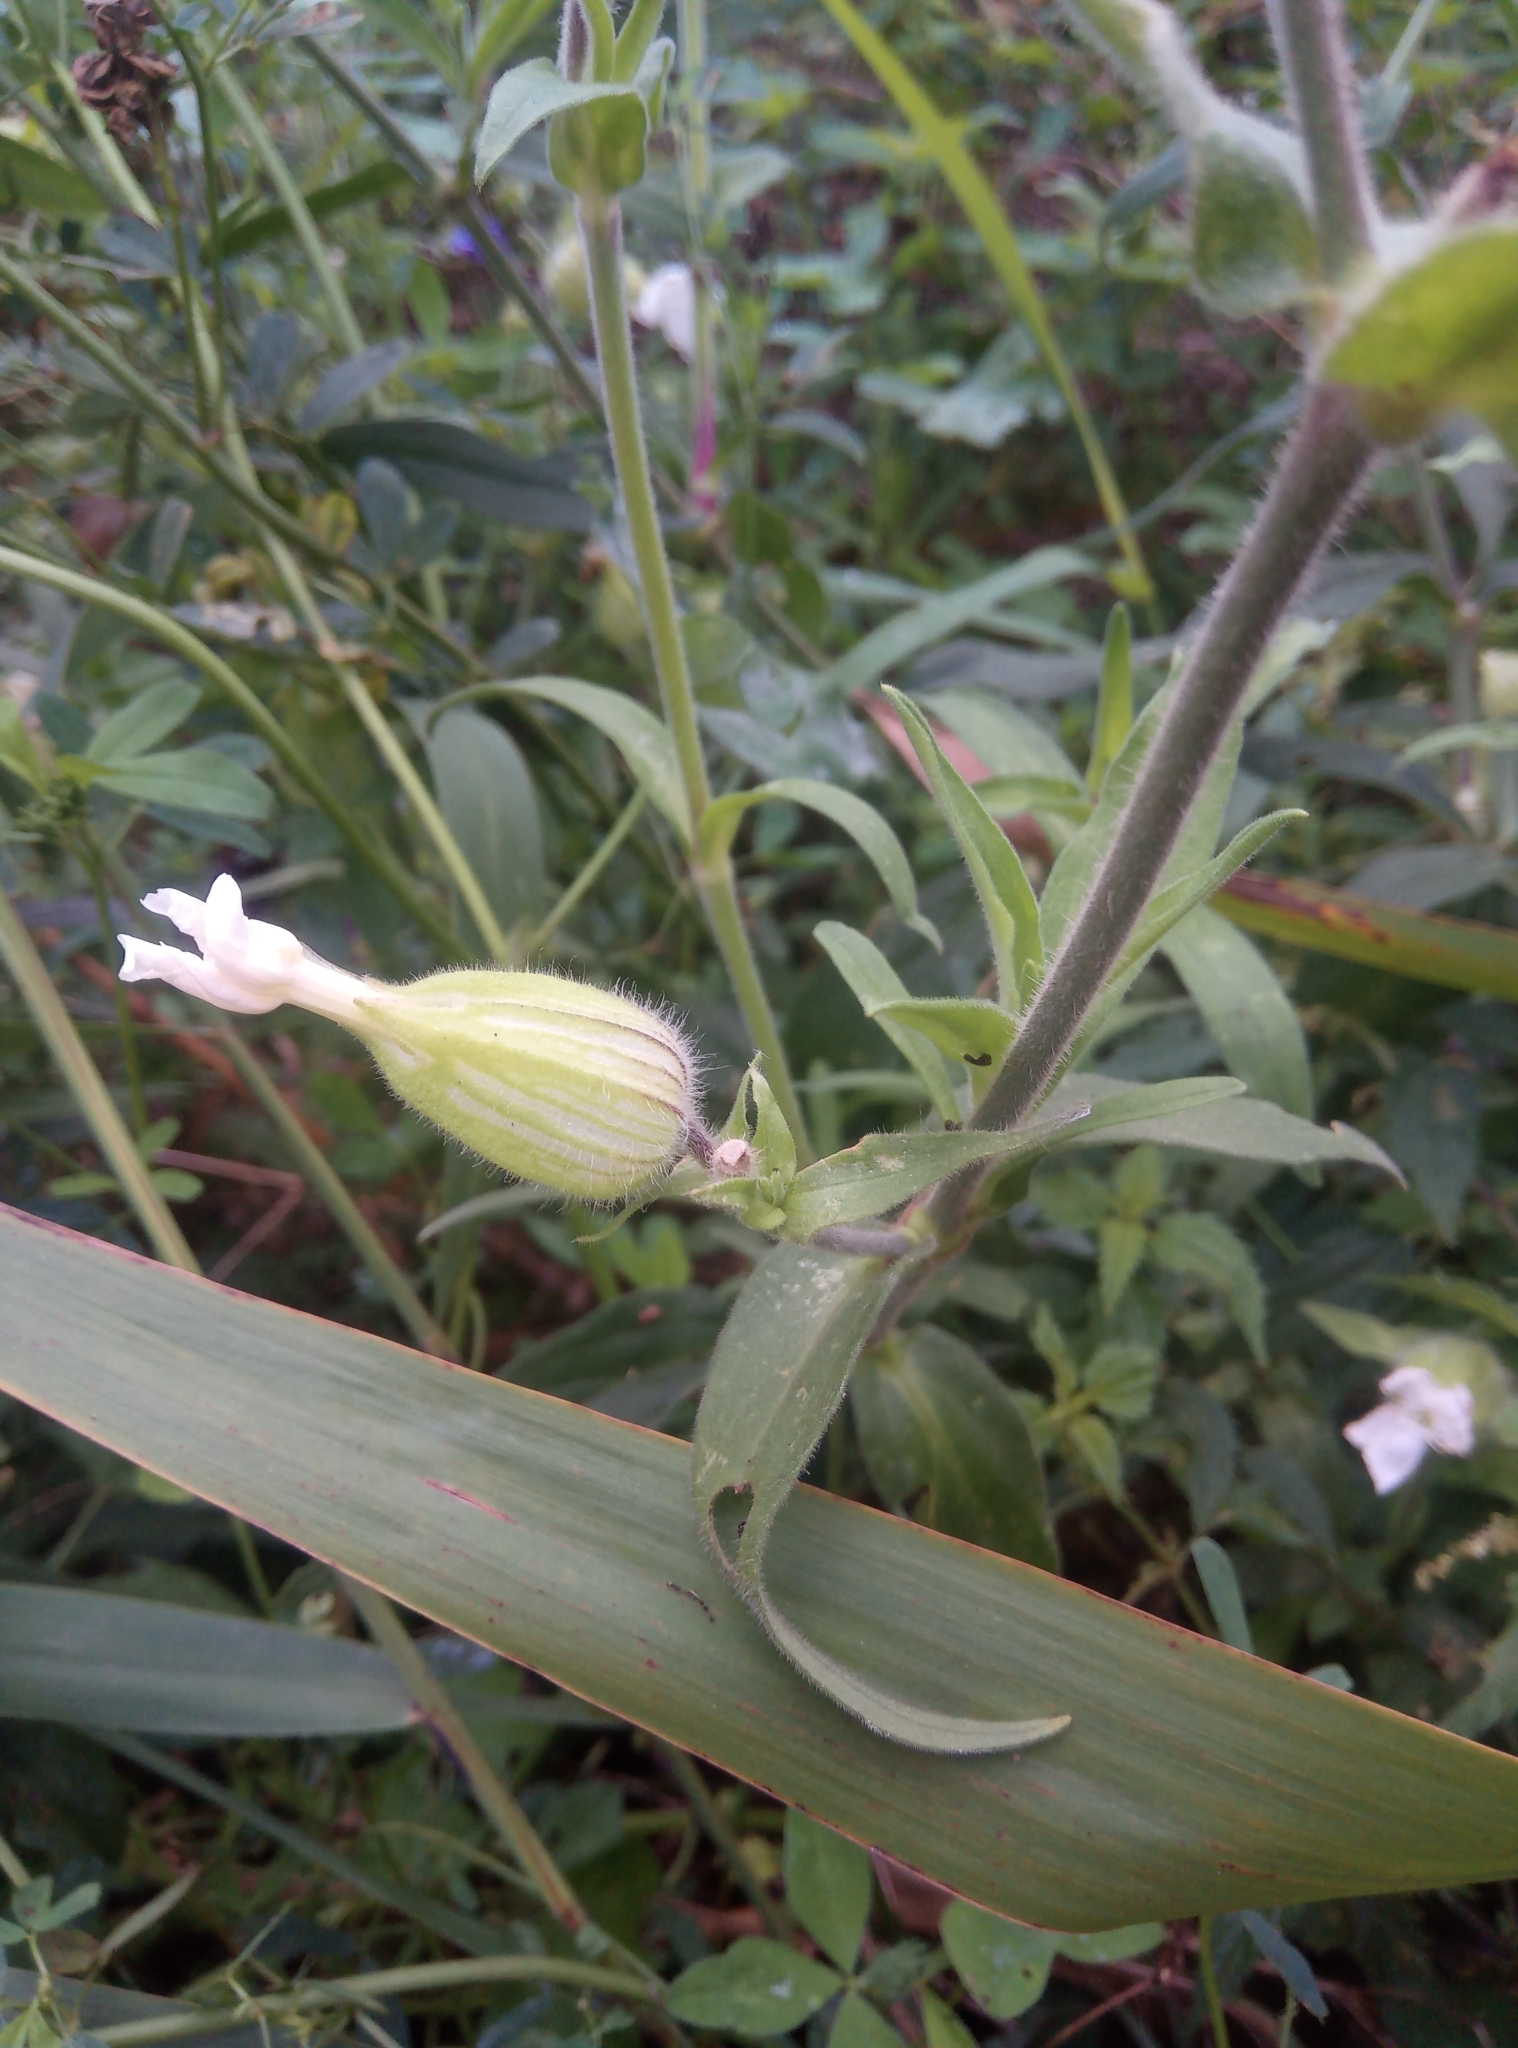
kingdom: Plantae
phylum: Tracheophyta
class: Magnoliopsida
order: Caryophyllales
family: Caryophyllaceae
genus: Silene
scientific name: Silene latifolia
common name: White campion
